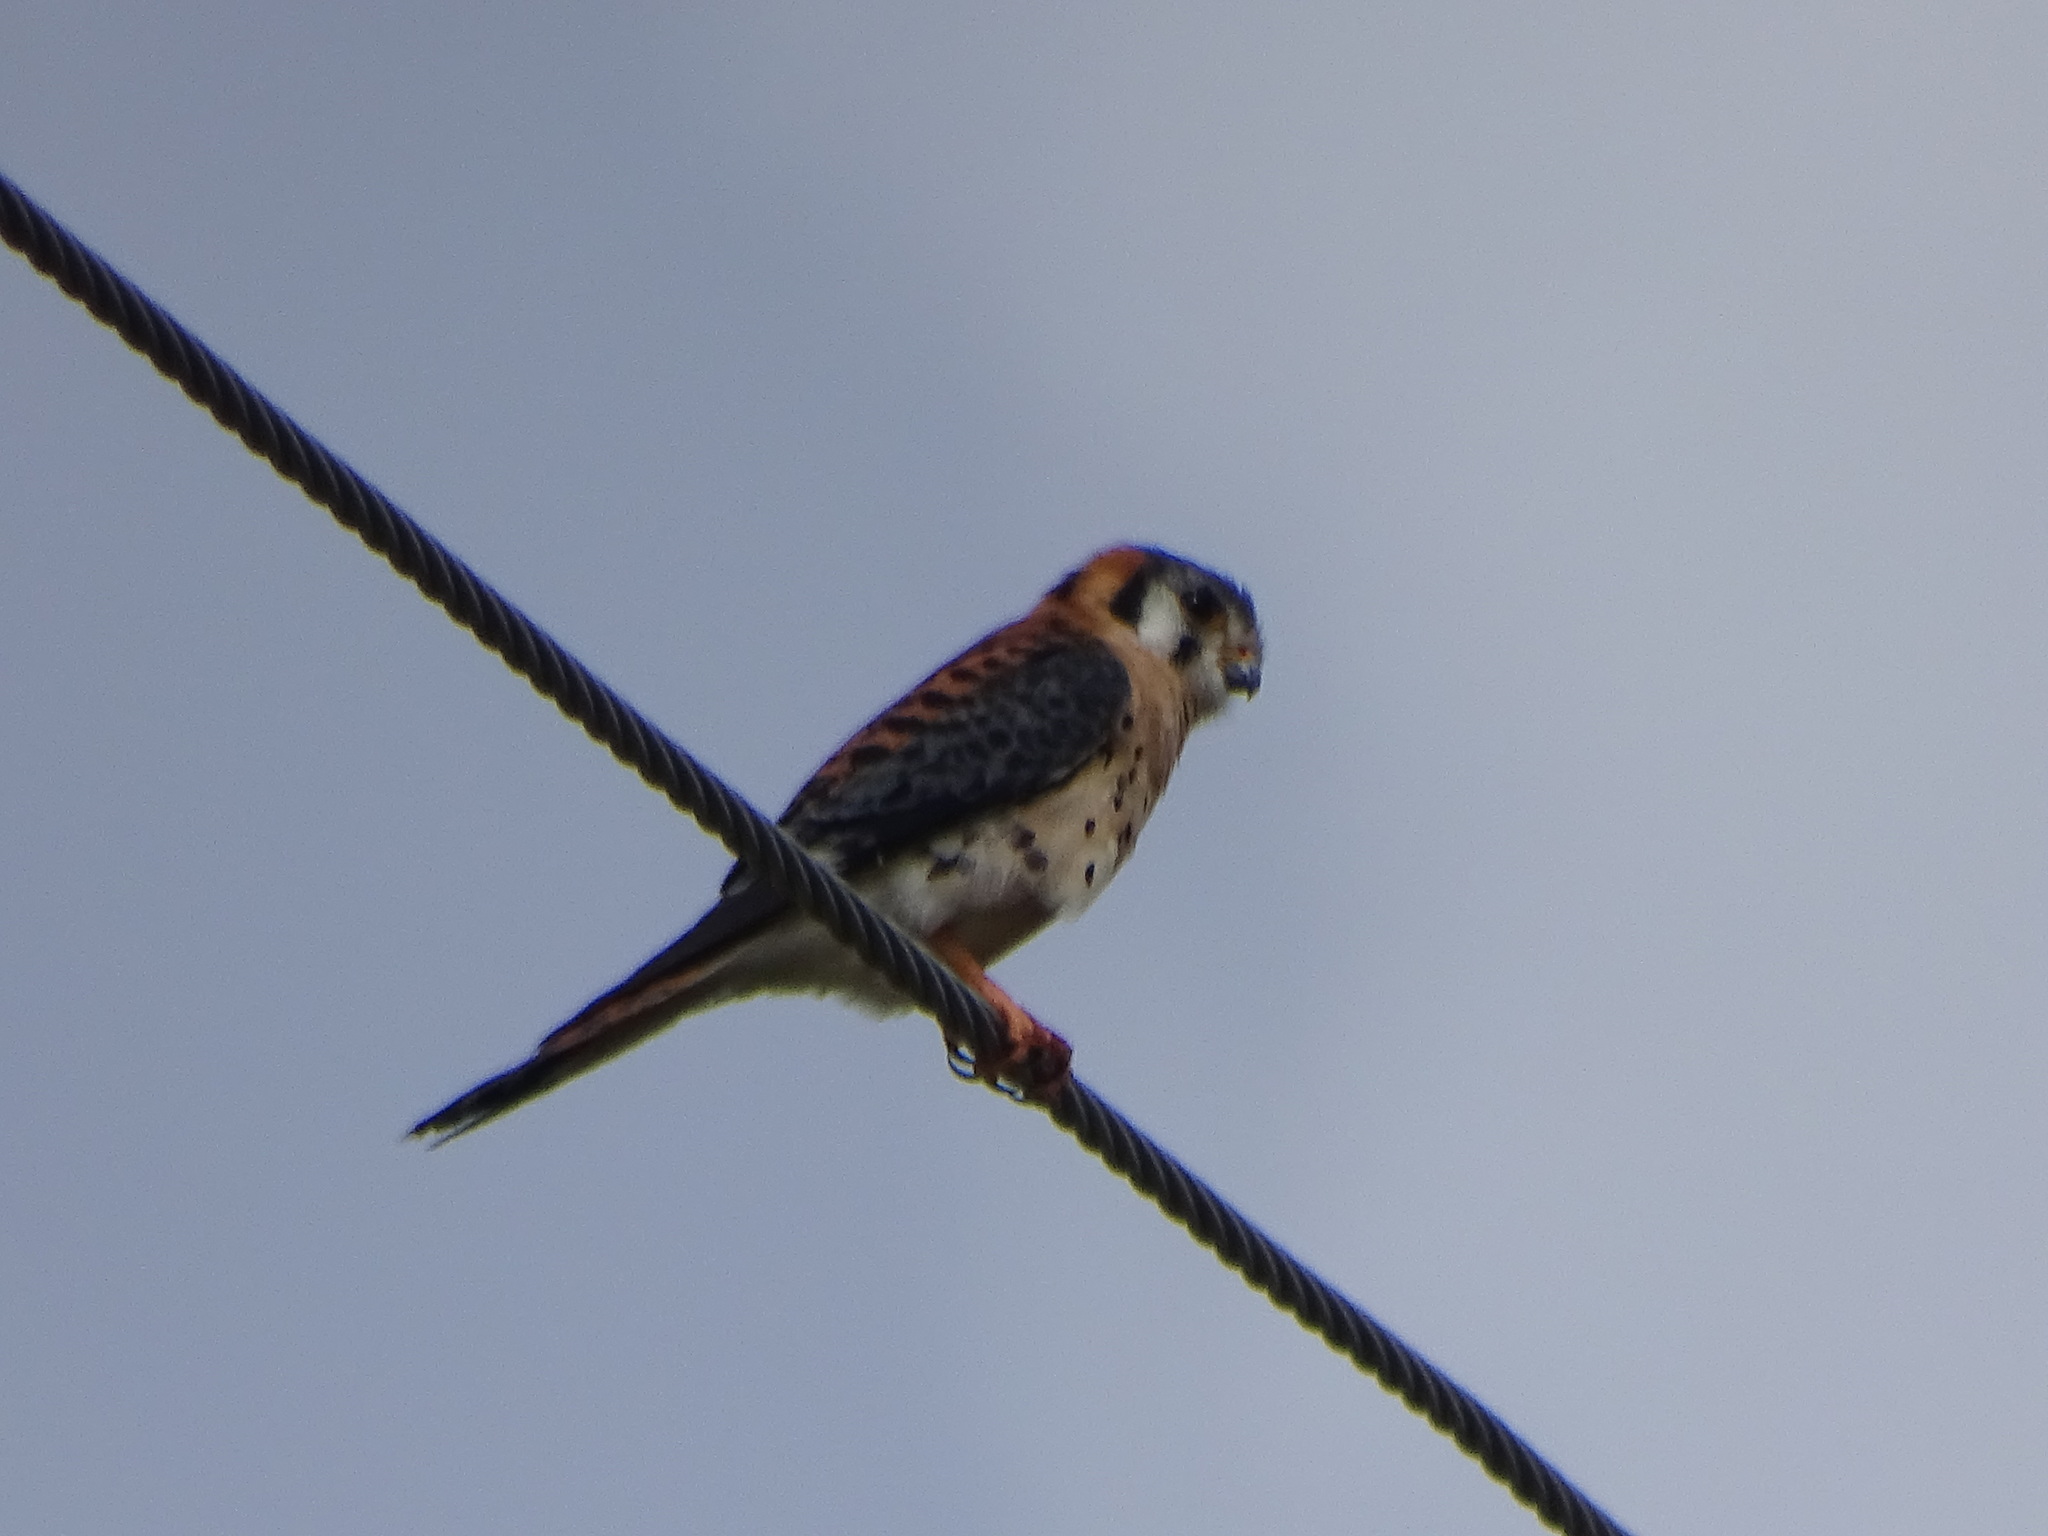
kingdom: Animalia
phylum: Chordata
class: Aves
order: Falconiformes
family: Falconidae
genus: Falco
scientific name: Falco sparverius
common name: American kestrel
